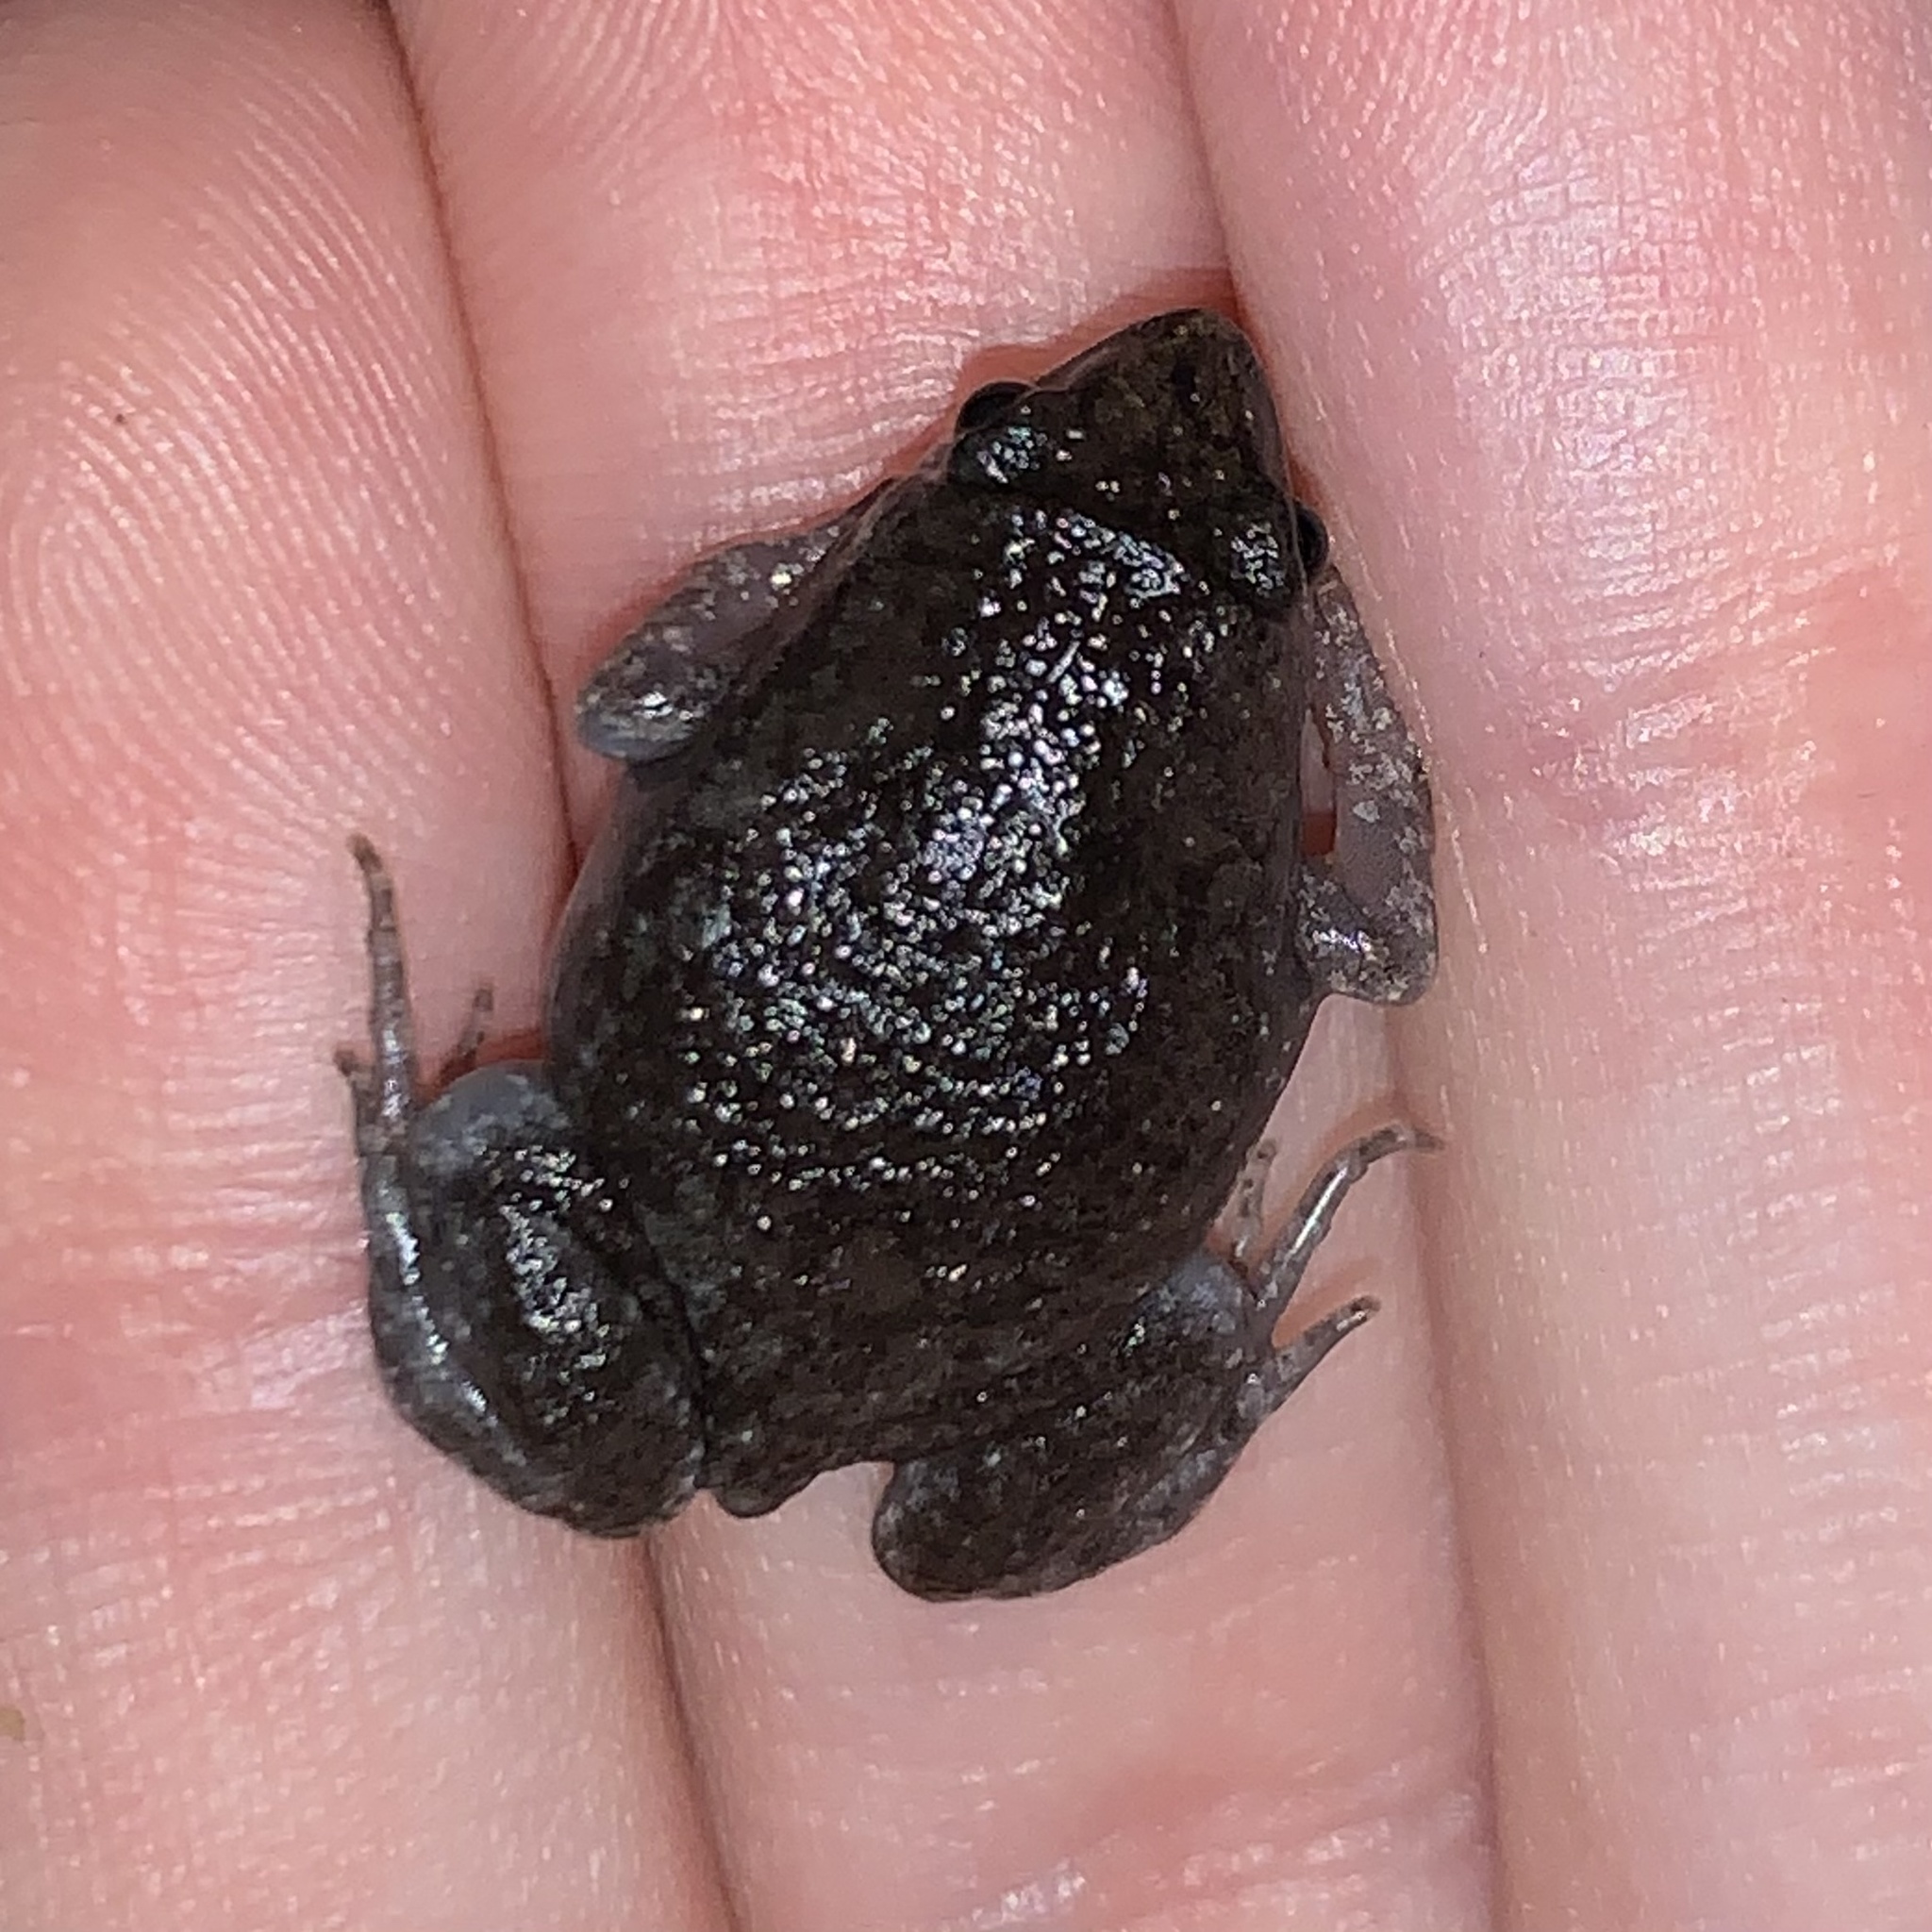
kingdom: Animalia
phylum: Chordata
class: Amphibia
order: Anura
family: Microhylidae
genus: Gastrophryne
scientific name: Gastrophryne carolinensis
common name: Eastern narrowmouth toad
